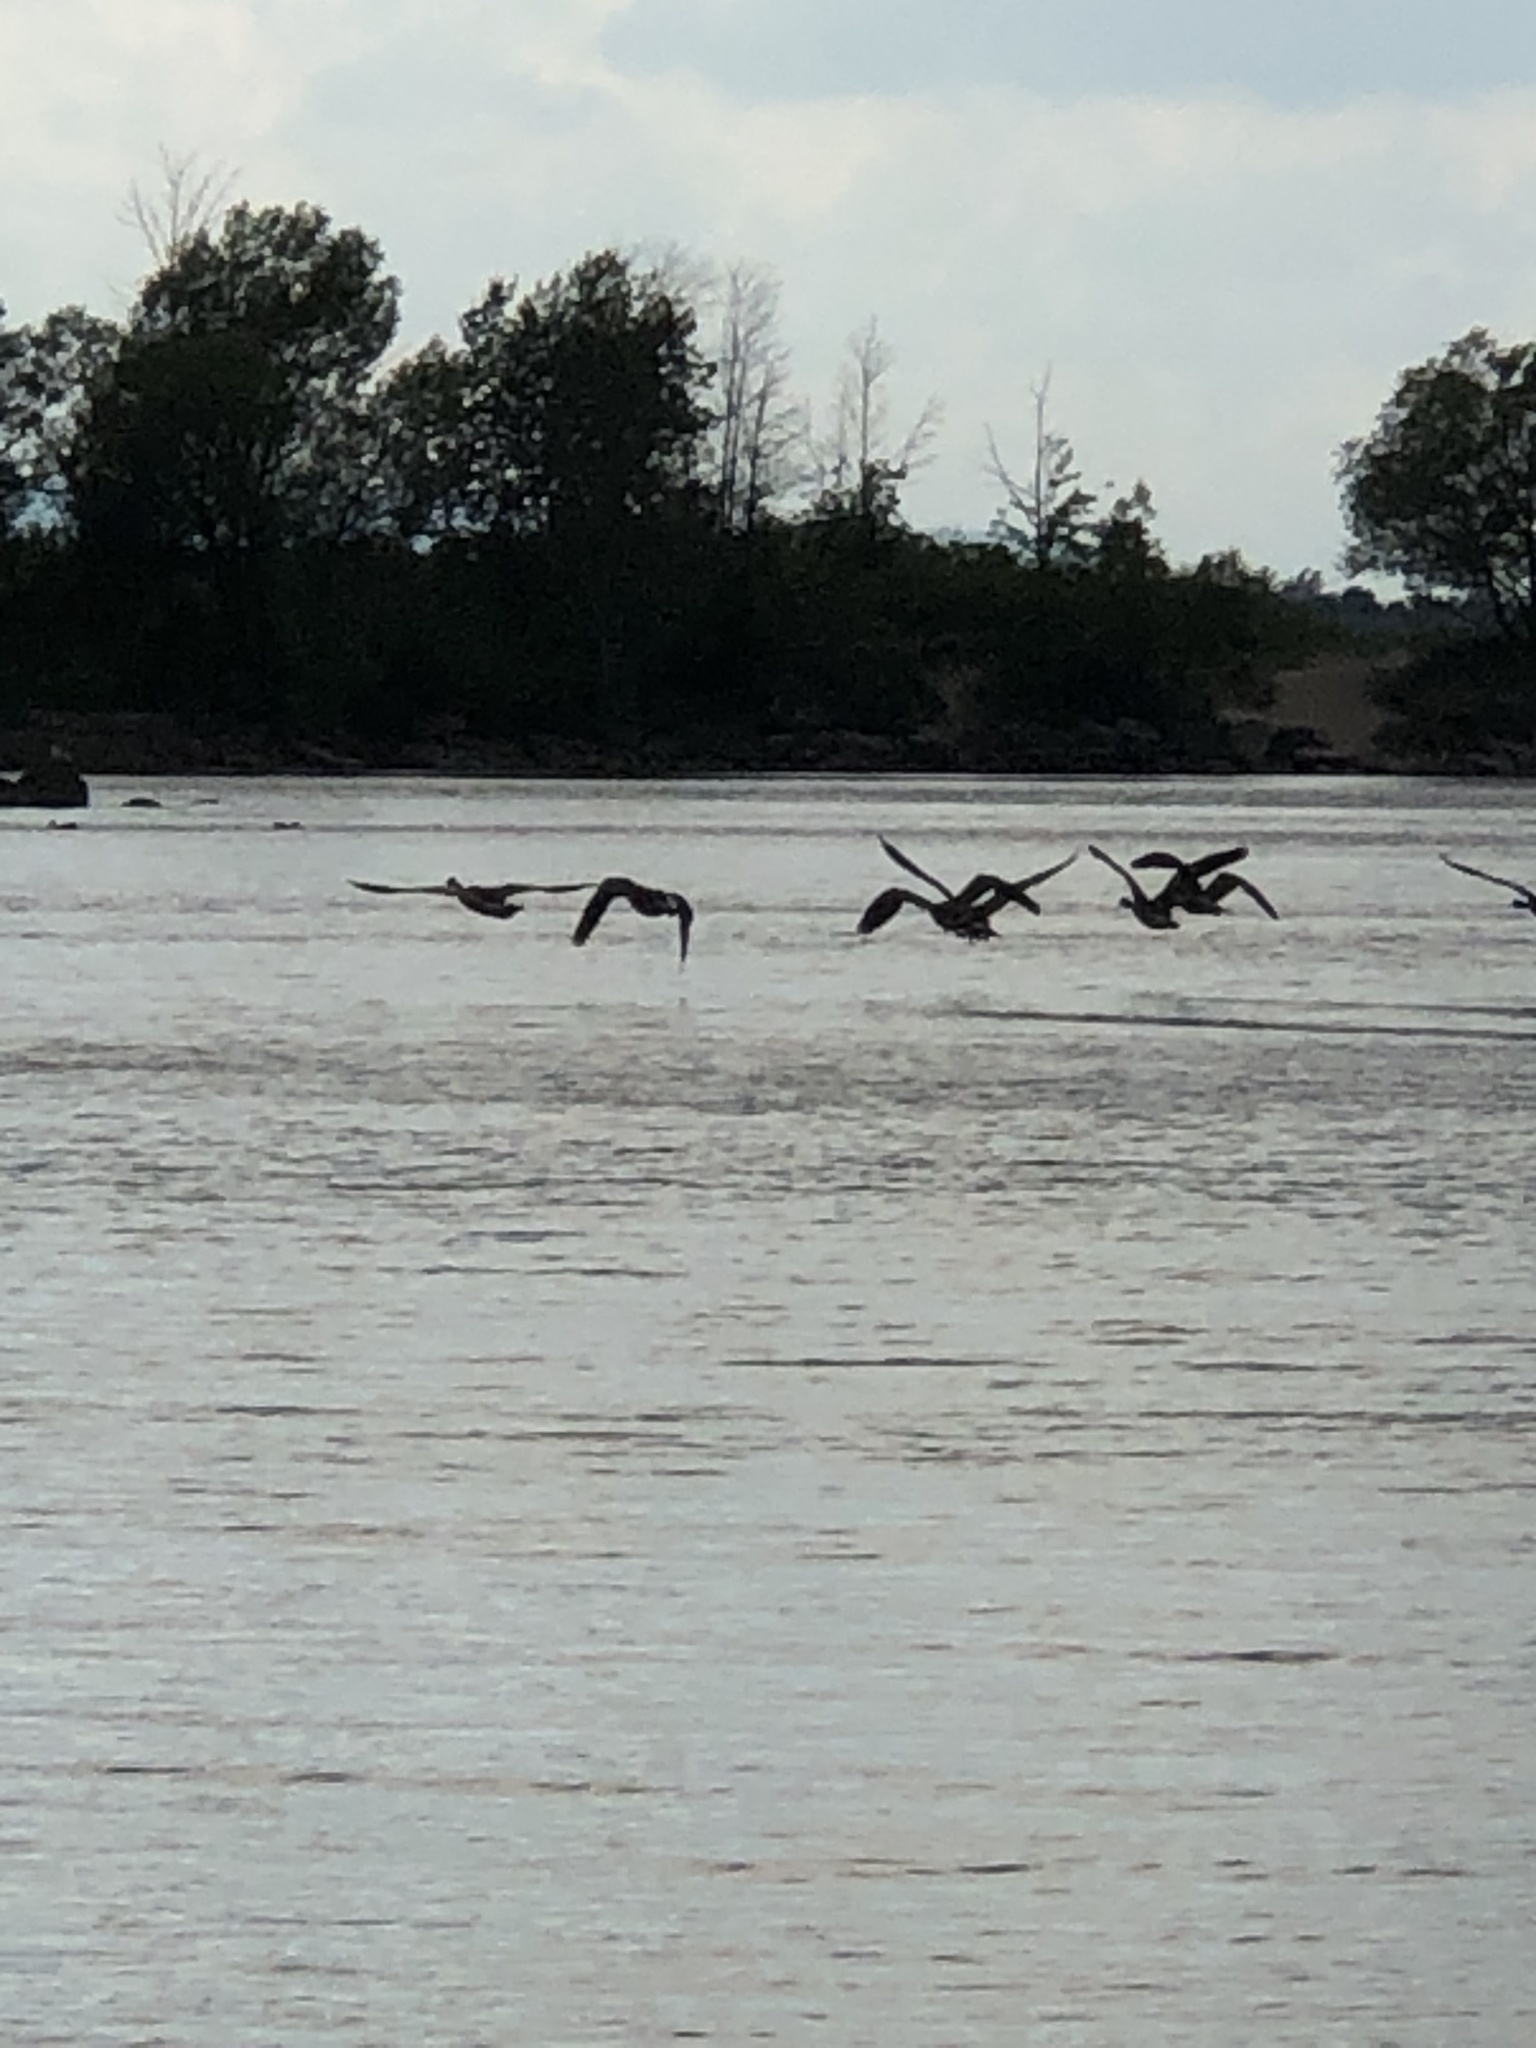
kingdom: Animalia
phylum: Chordata
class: Aves
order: Anseriformes
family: Anatidae
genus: Branta
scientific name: Branta canadensis
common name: Canada goose
